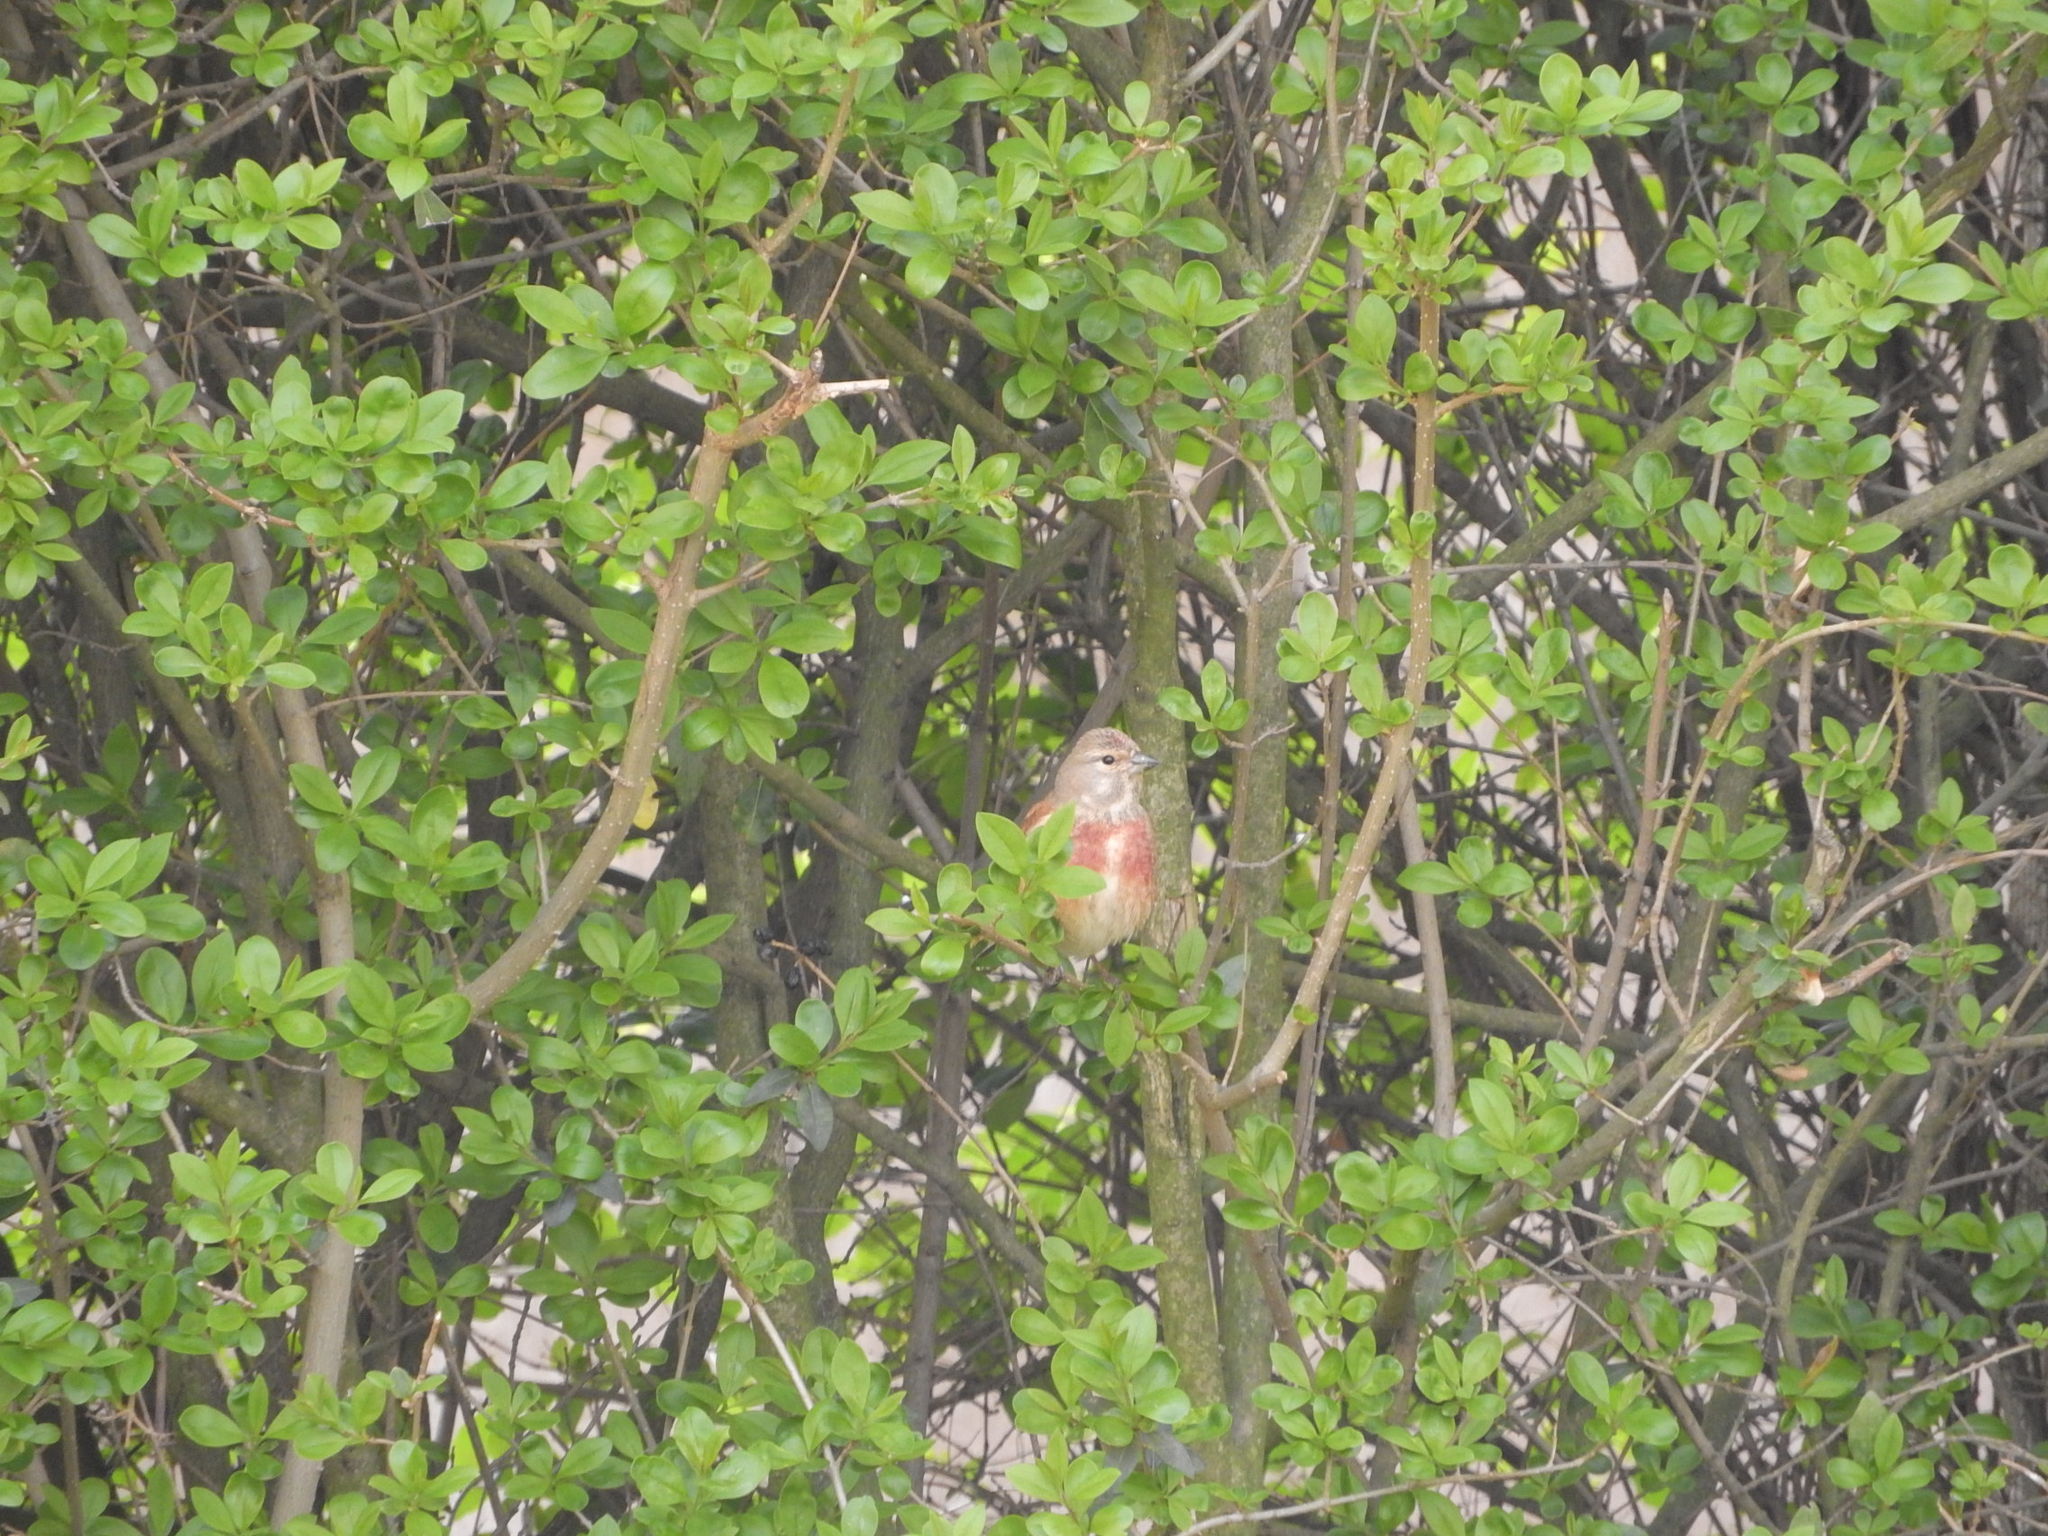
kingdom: Animalia
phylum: Chordata
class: Aves
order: Passeriformes
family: Fringillidae
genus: Linaria
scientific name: Linaria cannabina
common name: Common linnet
